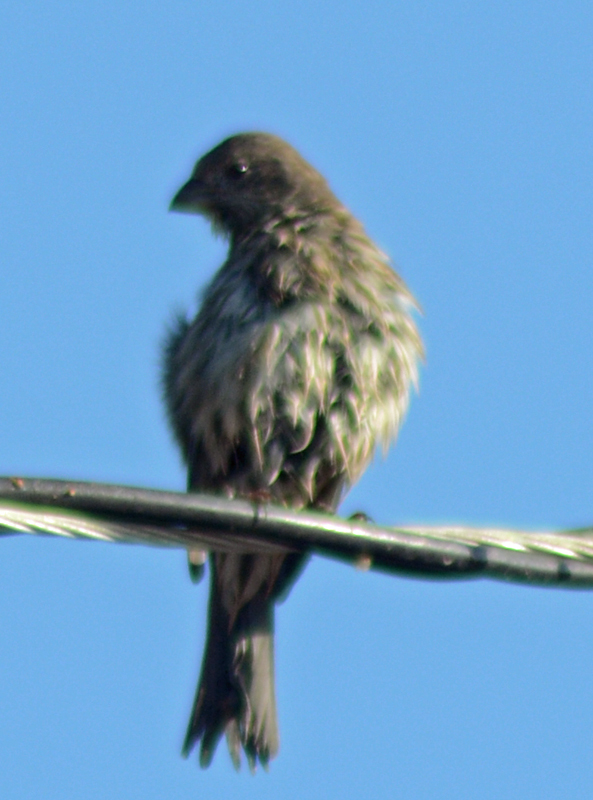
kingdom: Animalia
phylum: Chordata
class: Aves
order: Passeriformes
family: Fringillidae
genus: Haemorhous
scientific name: Haemorhous mexicanus
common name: House finch
